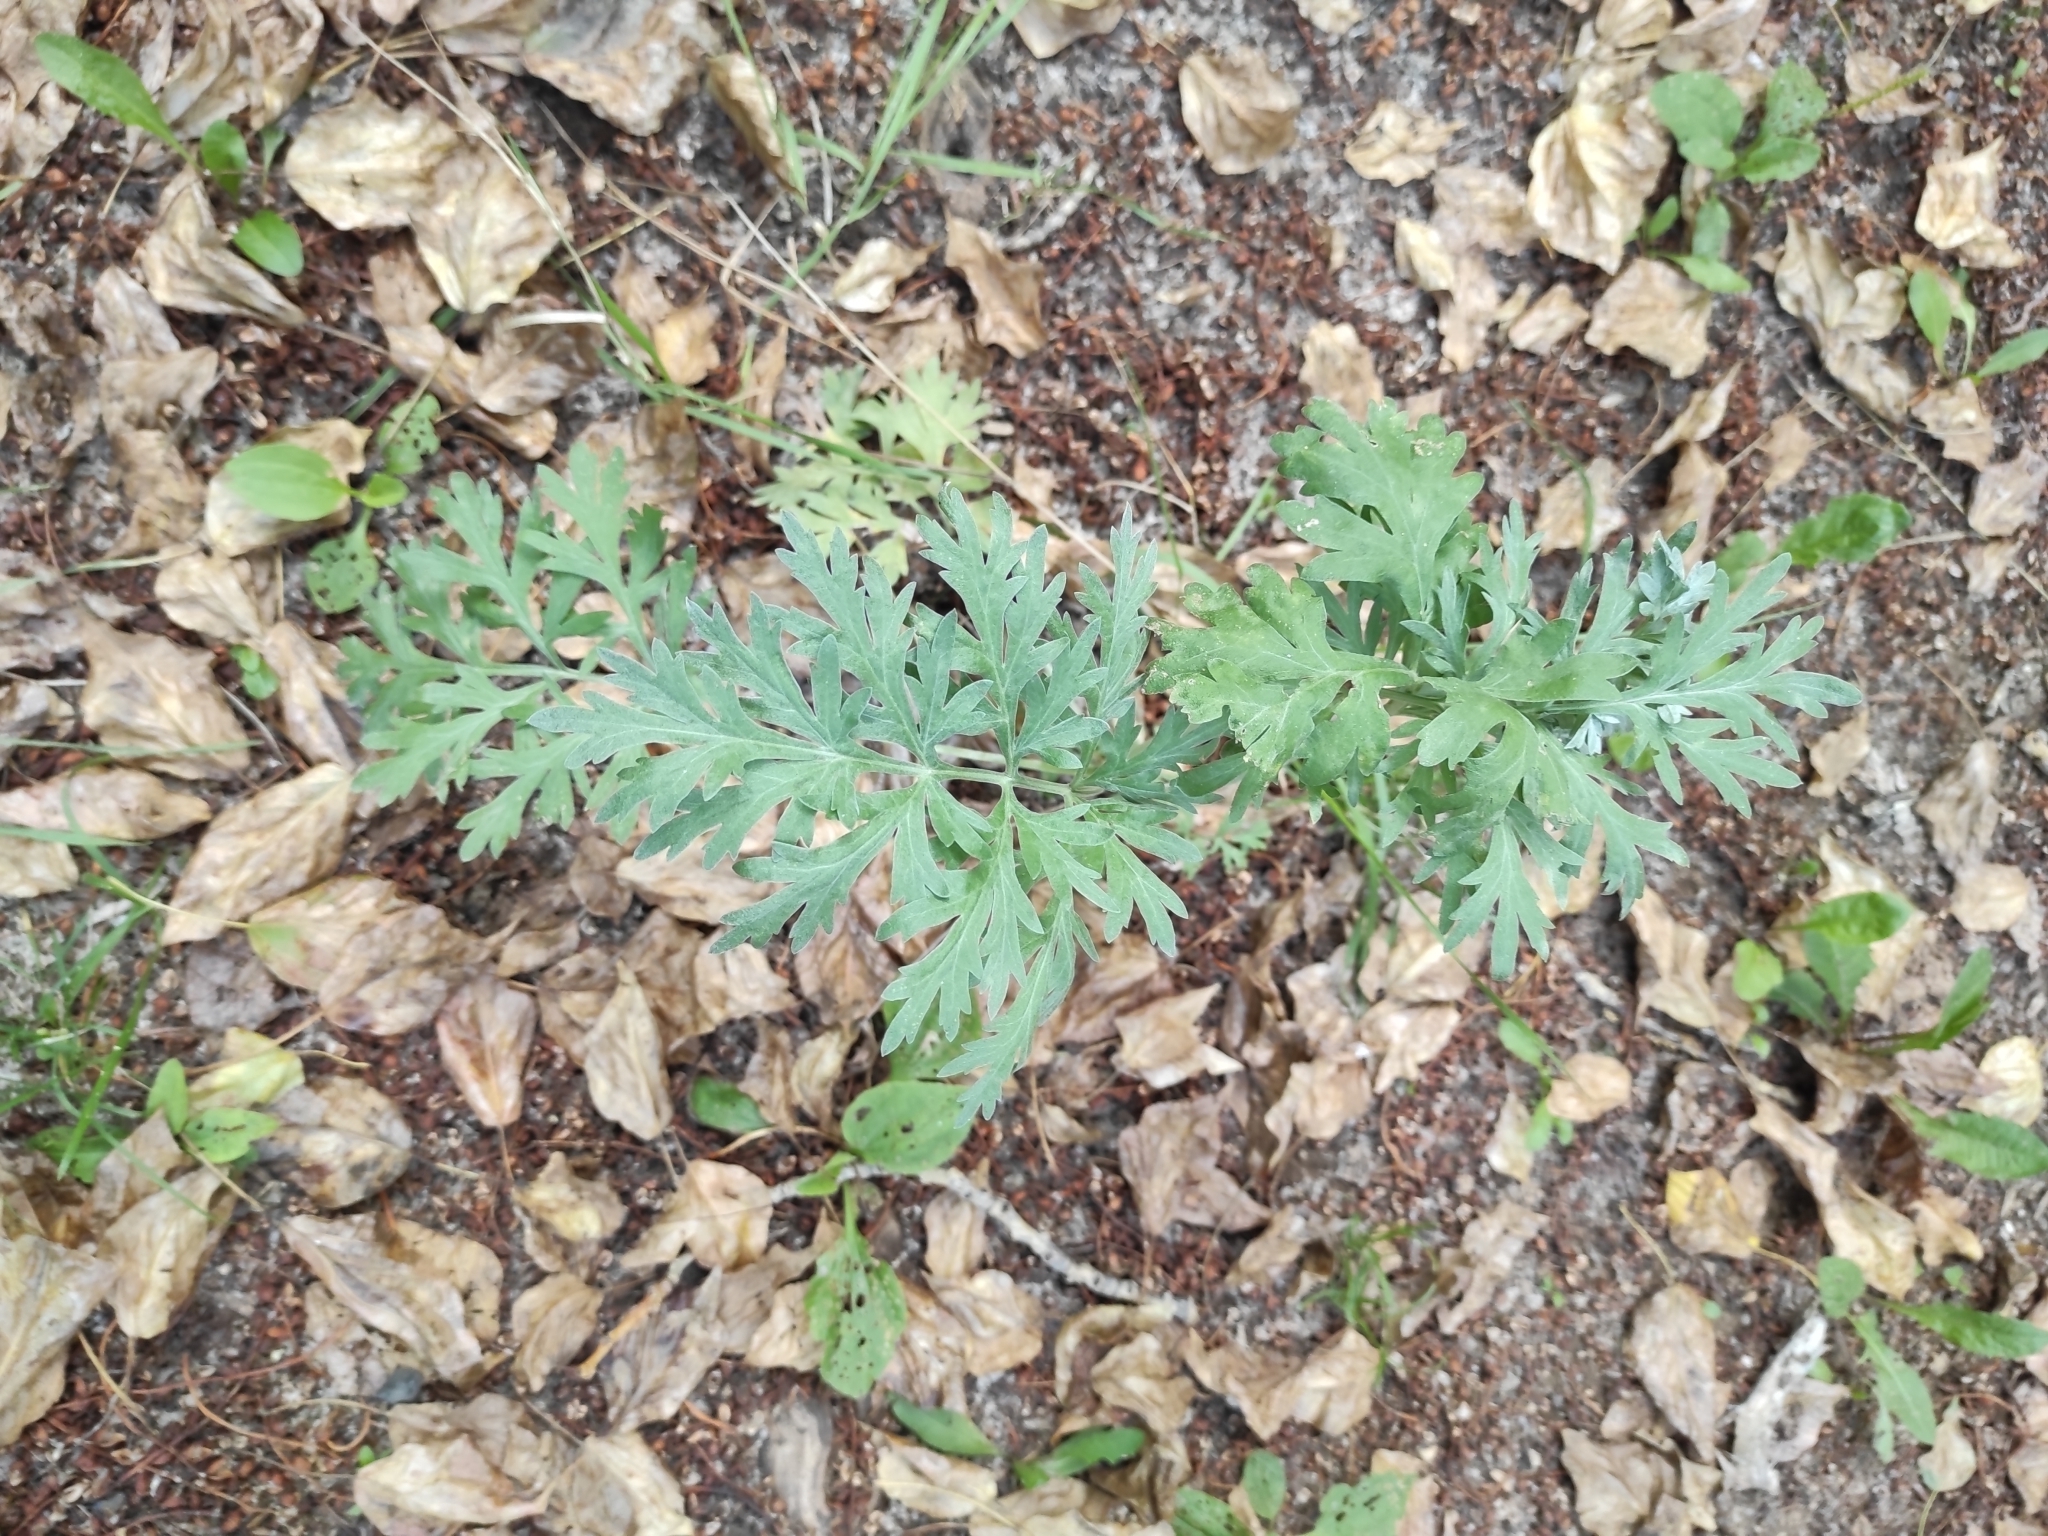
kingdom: Plantae
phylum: Tracheophyta
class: Magnoliopsida
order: Asterales
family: Asteraceae
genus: Artemisia
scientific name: Artemisia sieversiana
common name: Sieversian wormwood
